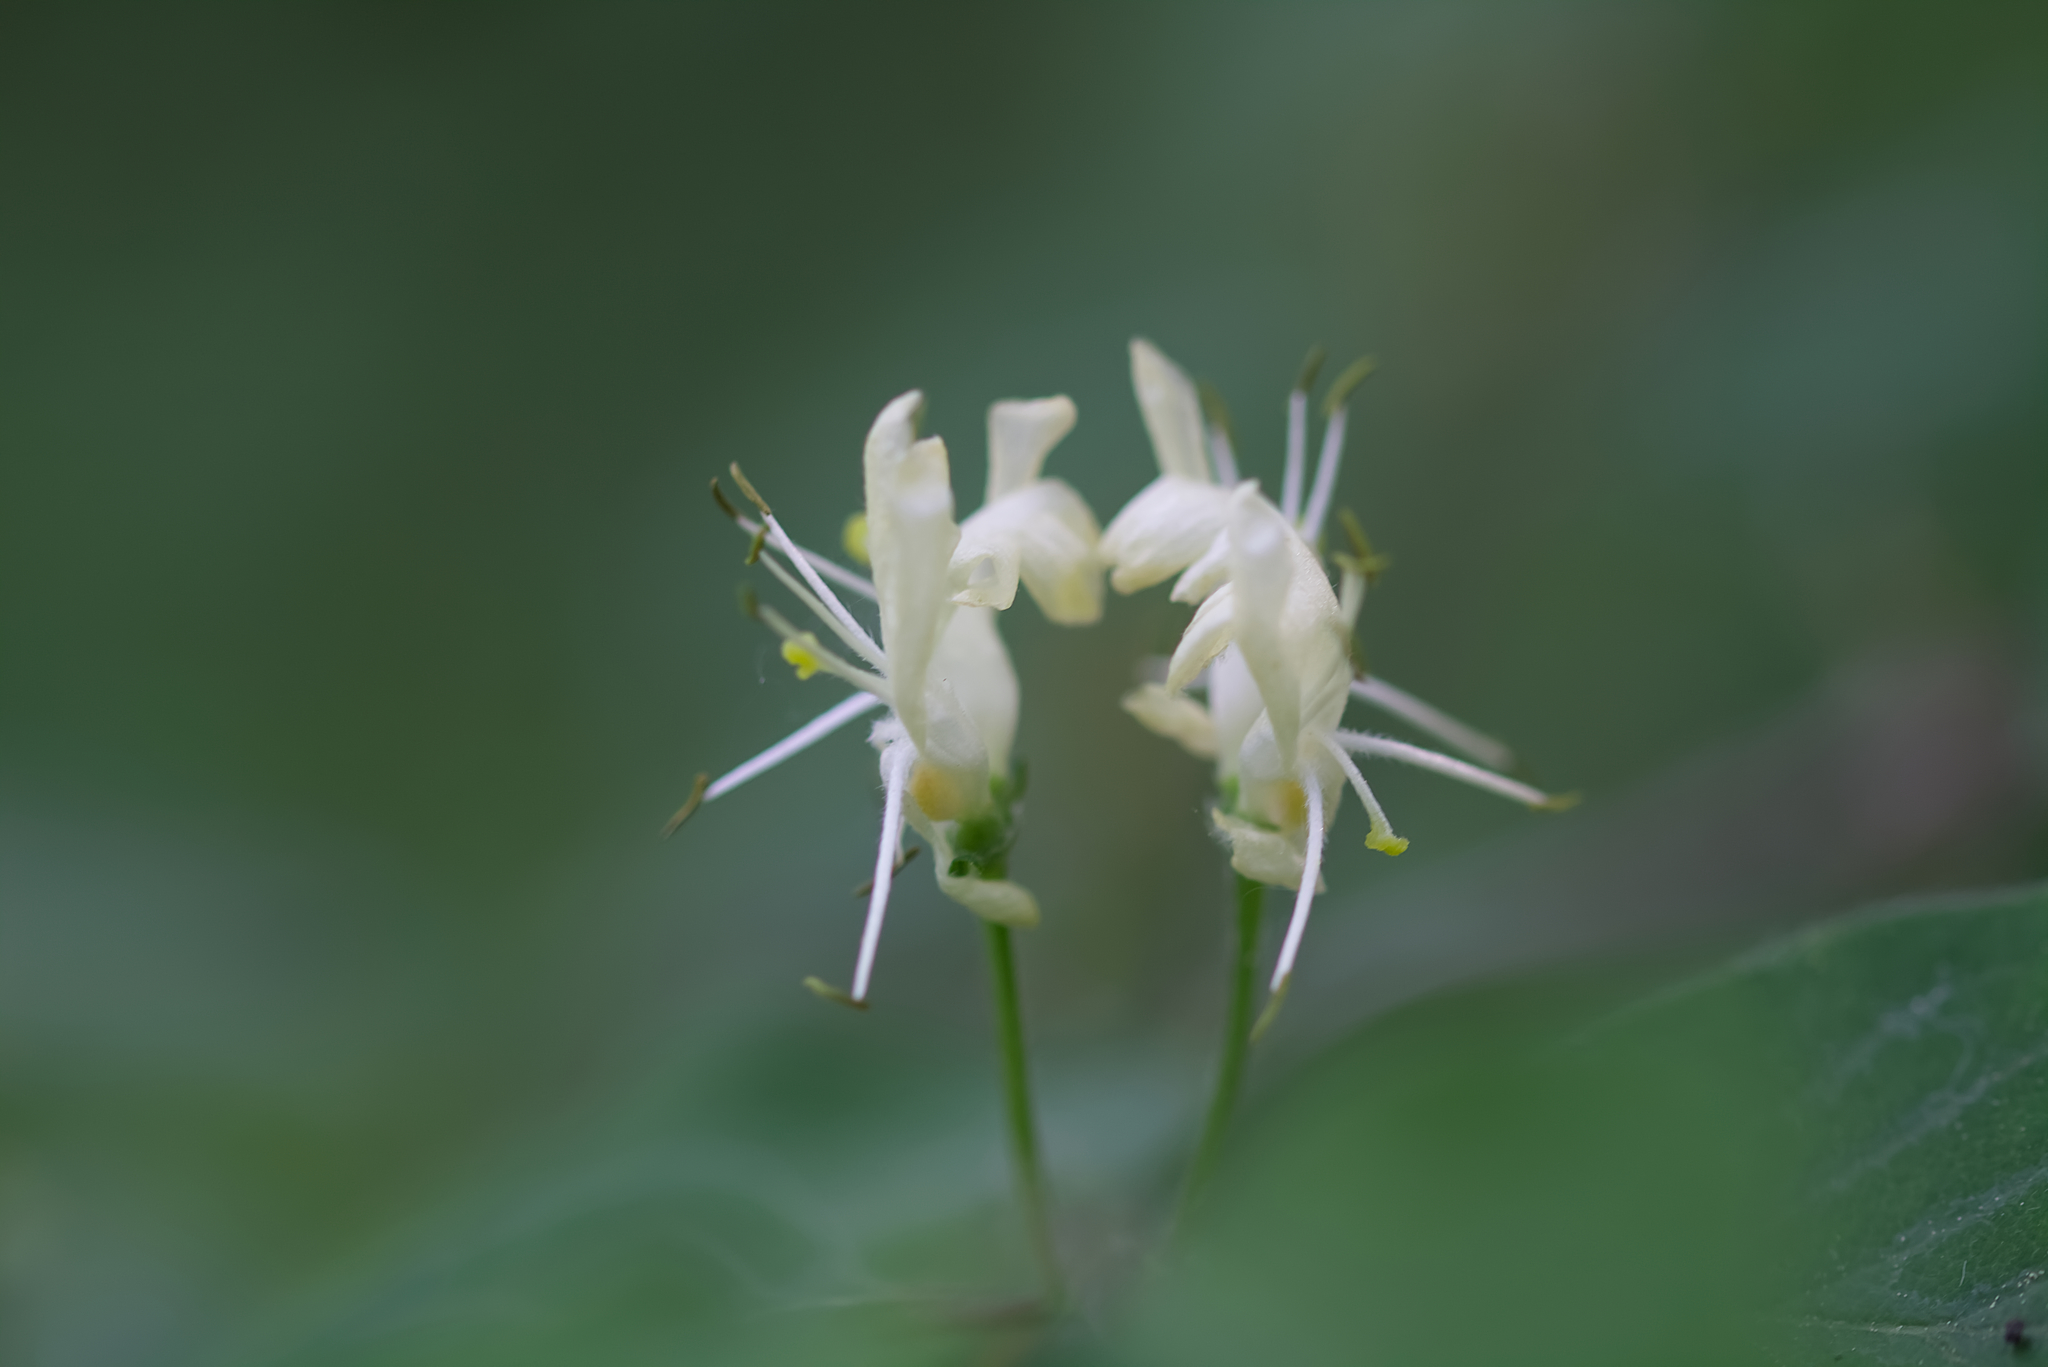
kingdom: Plantae
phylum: Tracheophyta
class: Magnoliopsida
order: Dipsacales
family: Caprifoliaceae
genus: Lonicera
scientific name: Lonicera xylosteum
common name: Fly honeysuckle
